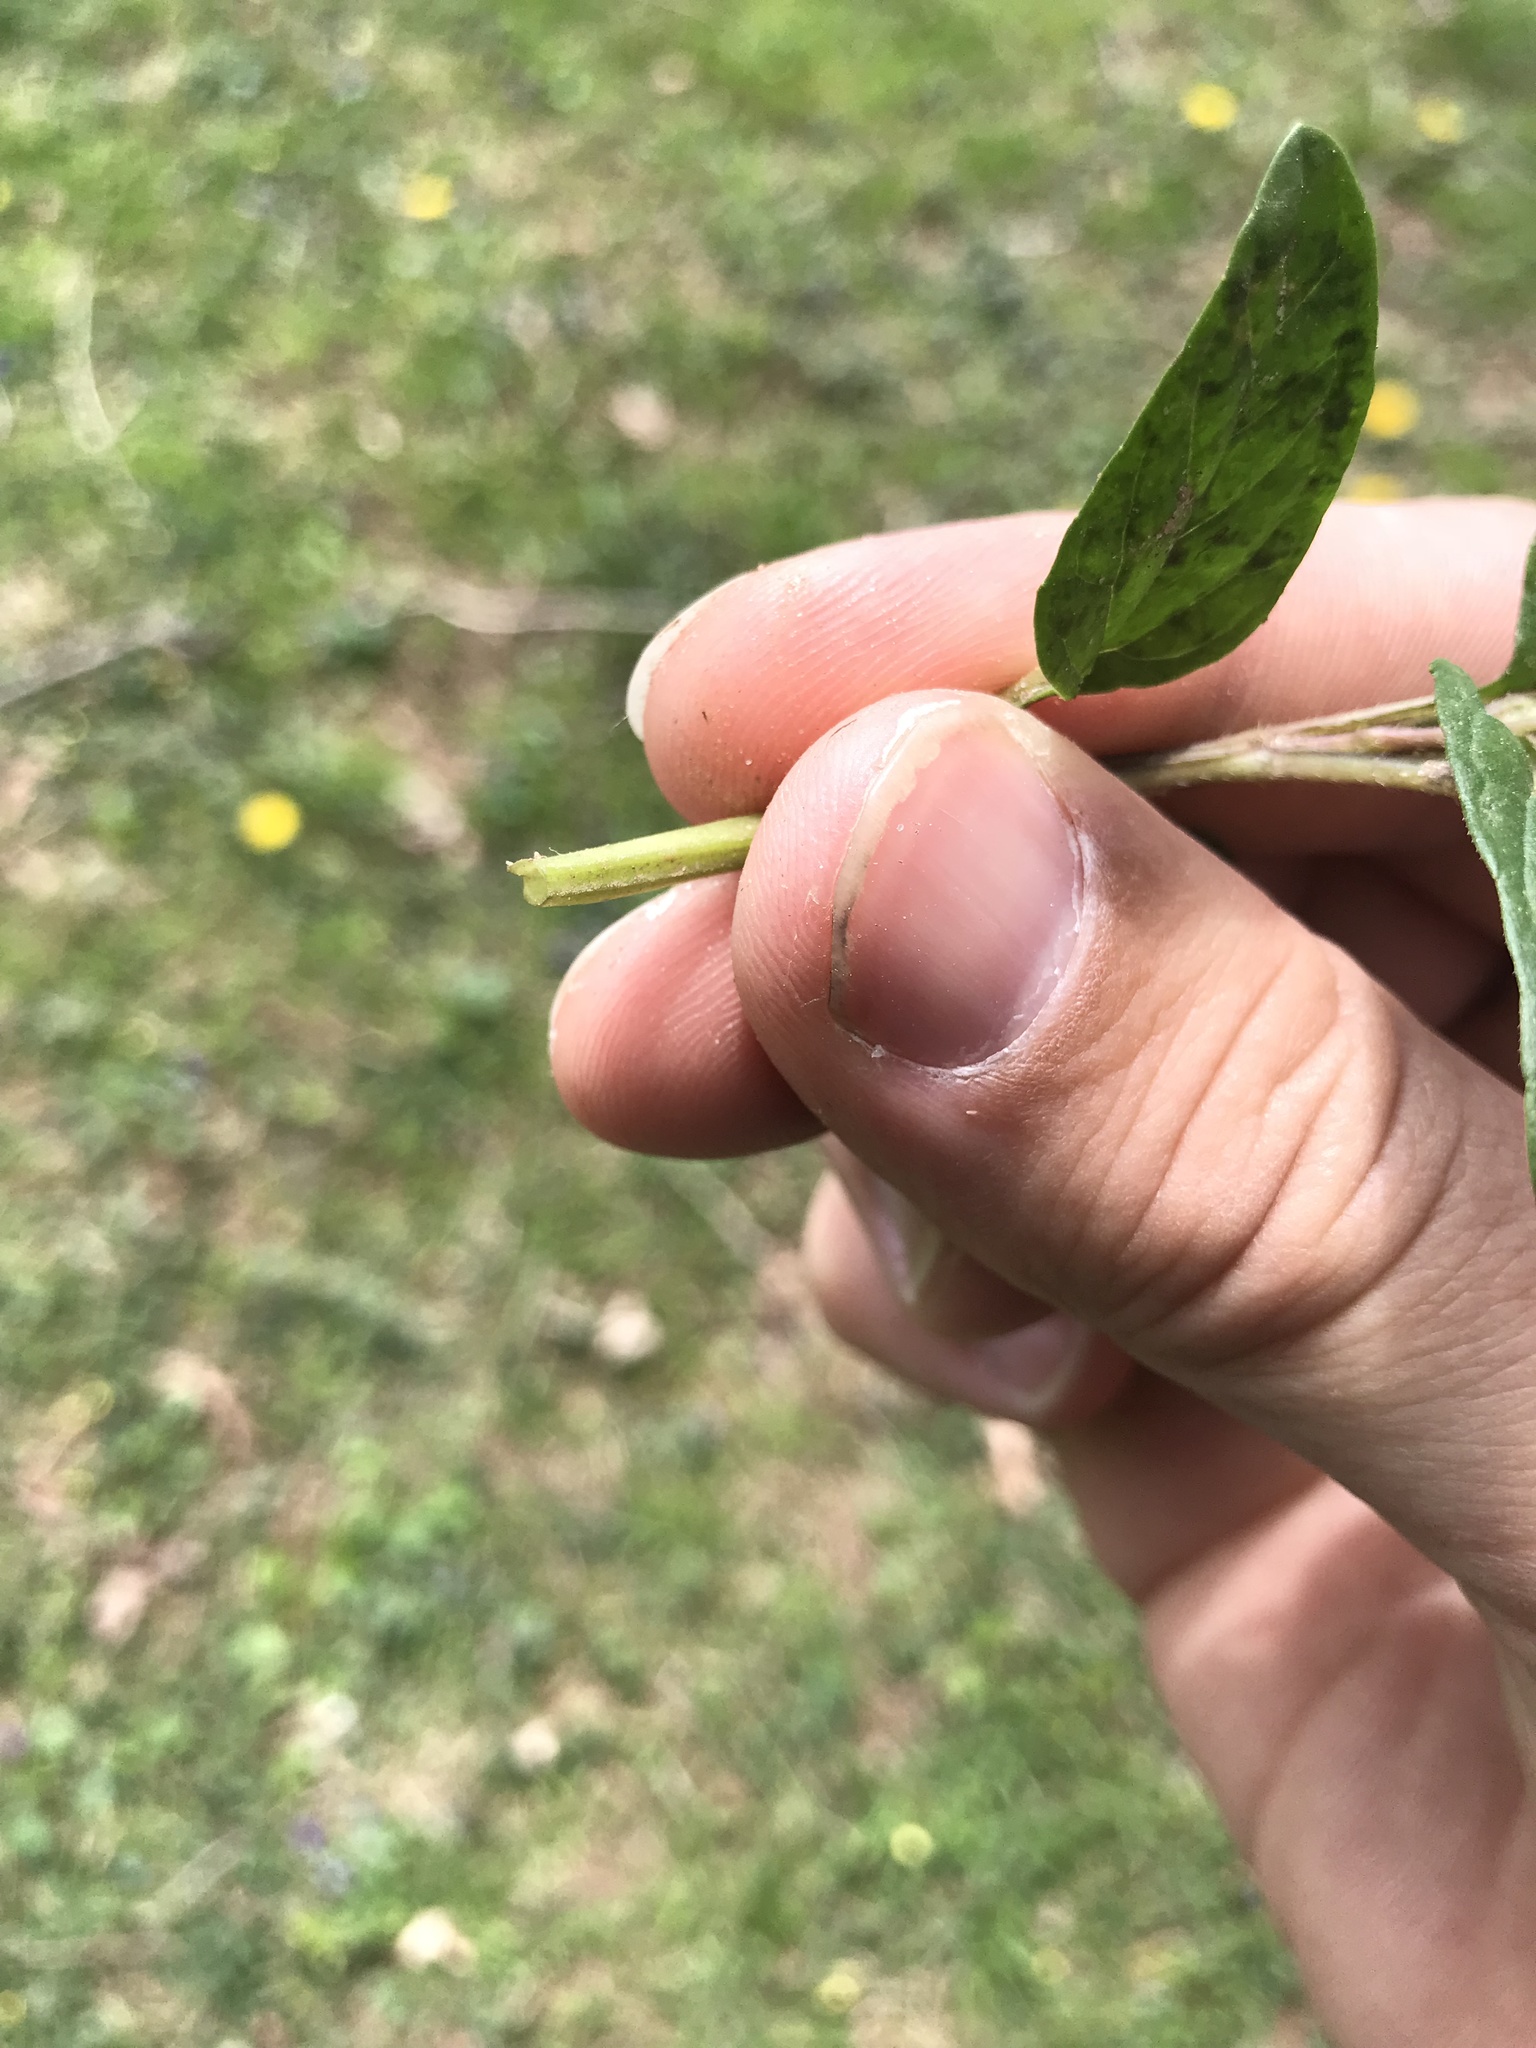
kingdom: Plantae
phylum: Tracheophyta
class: Magnoliopsida
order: Lamiales
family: Lamiaceae
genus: Prunella
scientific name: Prunella vulgaris
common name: Heal-all
